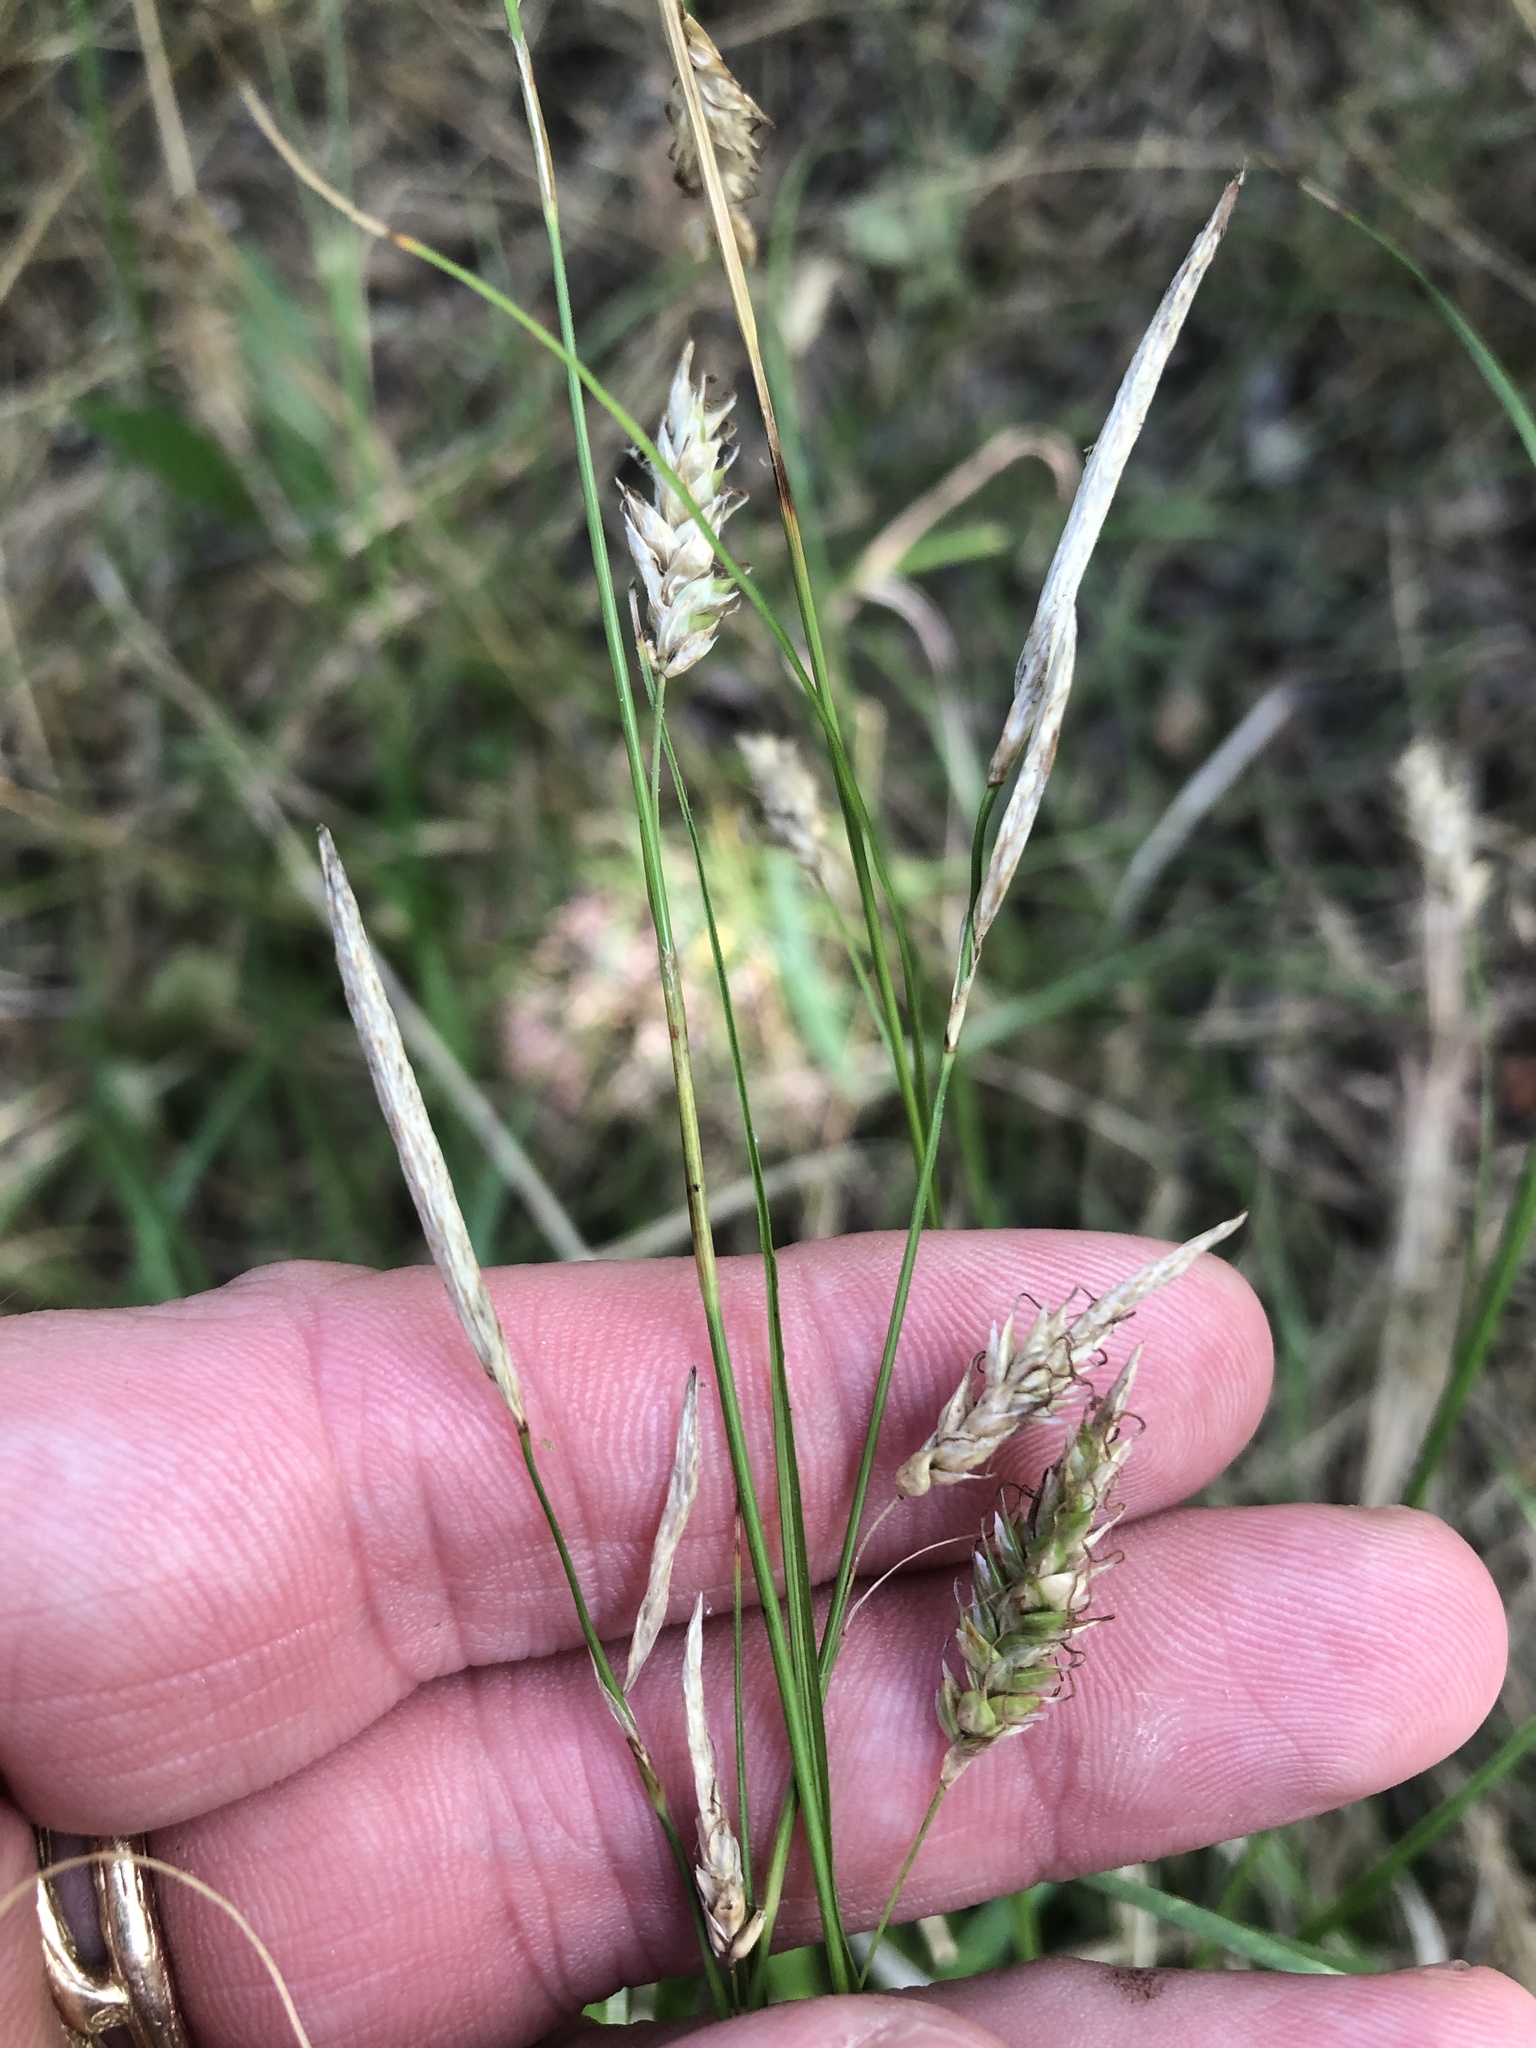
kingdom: Plantae
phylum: Tracheophyta
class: Liliopsida
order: Poales
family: Cyperaceae
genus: Carex
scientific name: Carex cherokeensis
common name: Cherokee sedge
